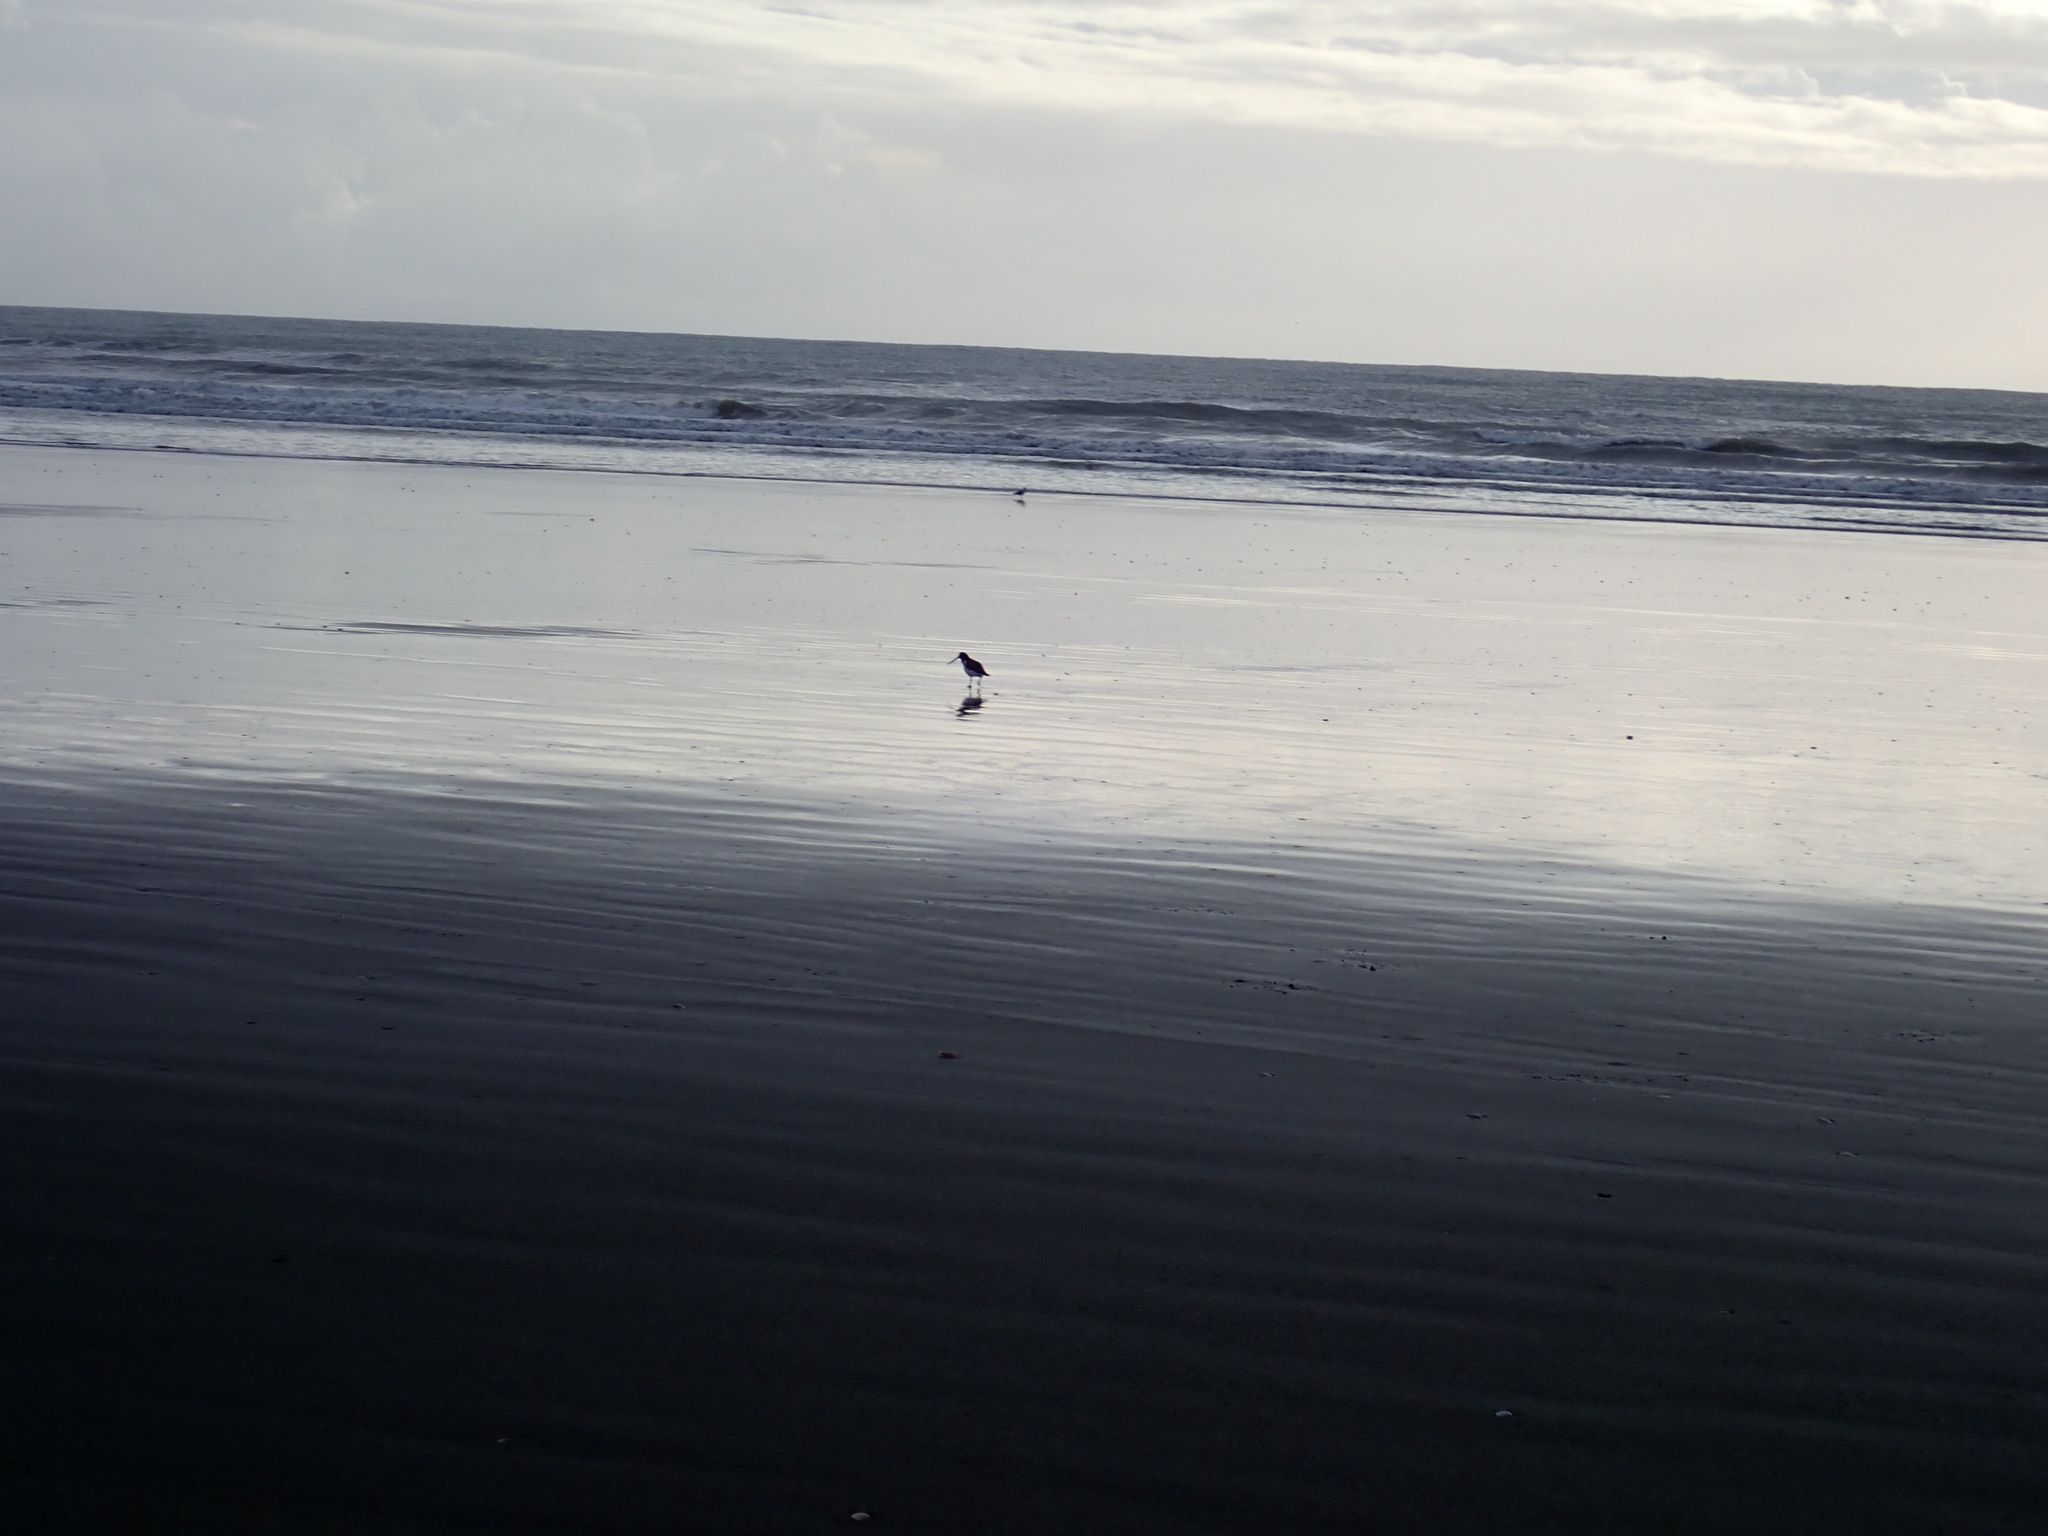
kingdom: Animalia
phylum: Chordata
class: Aves
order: Charadriiformes
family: Haematopodidae
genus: Haematopus
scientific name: Haematopus finschi
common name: South island oystercatcher
